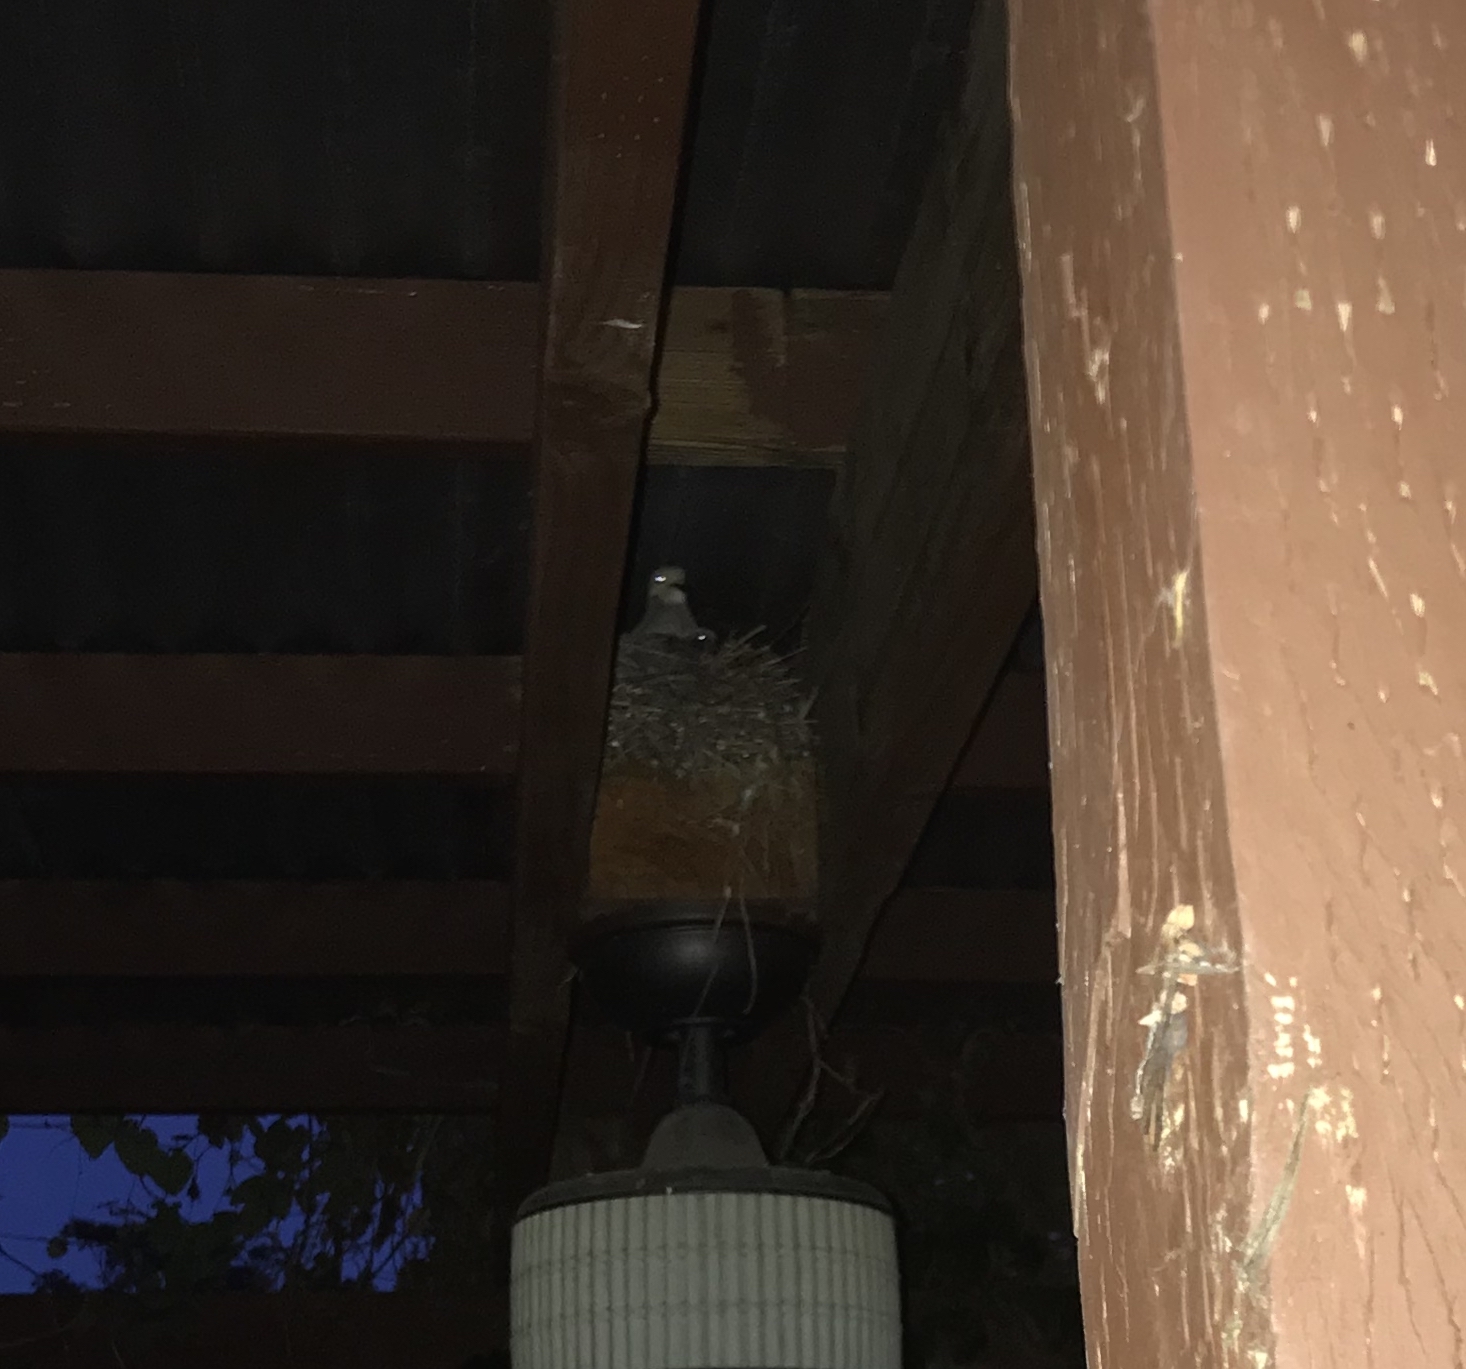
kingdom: Animalia
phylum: Chordata
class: Aves
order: Columbiformes
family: Columbidae
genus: Zenaida
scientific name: Zenaida macroura
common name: Mourning dove
